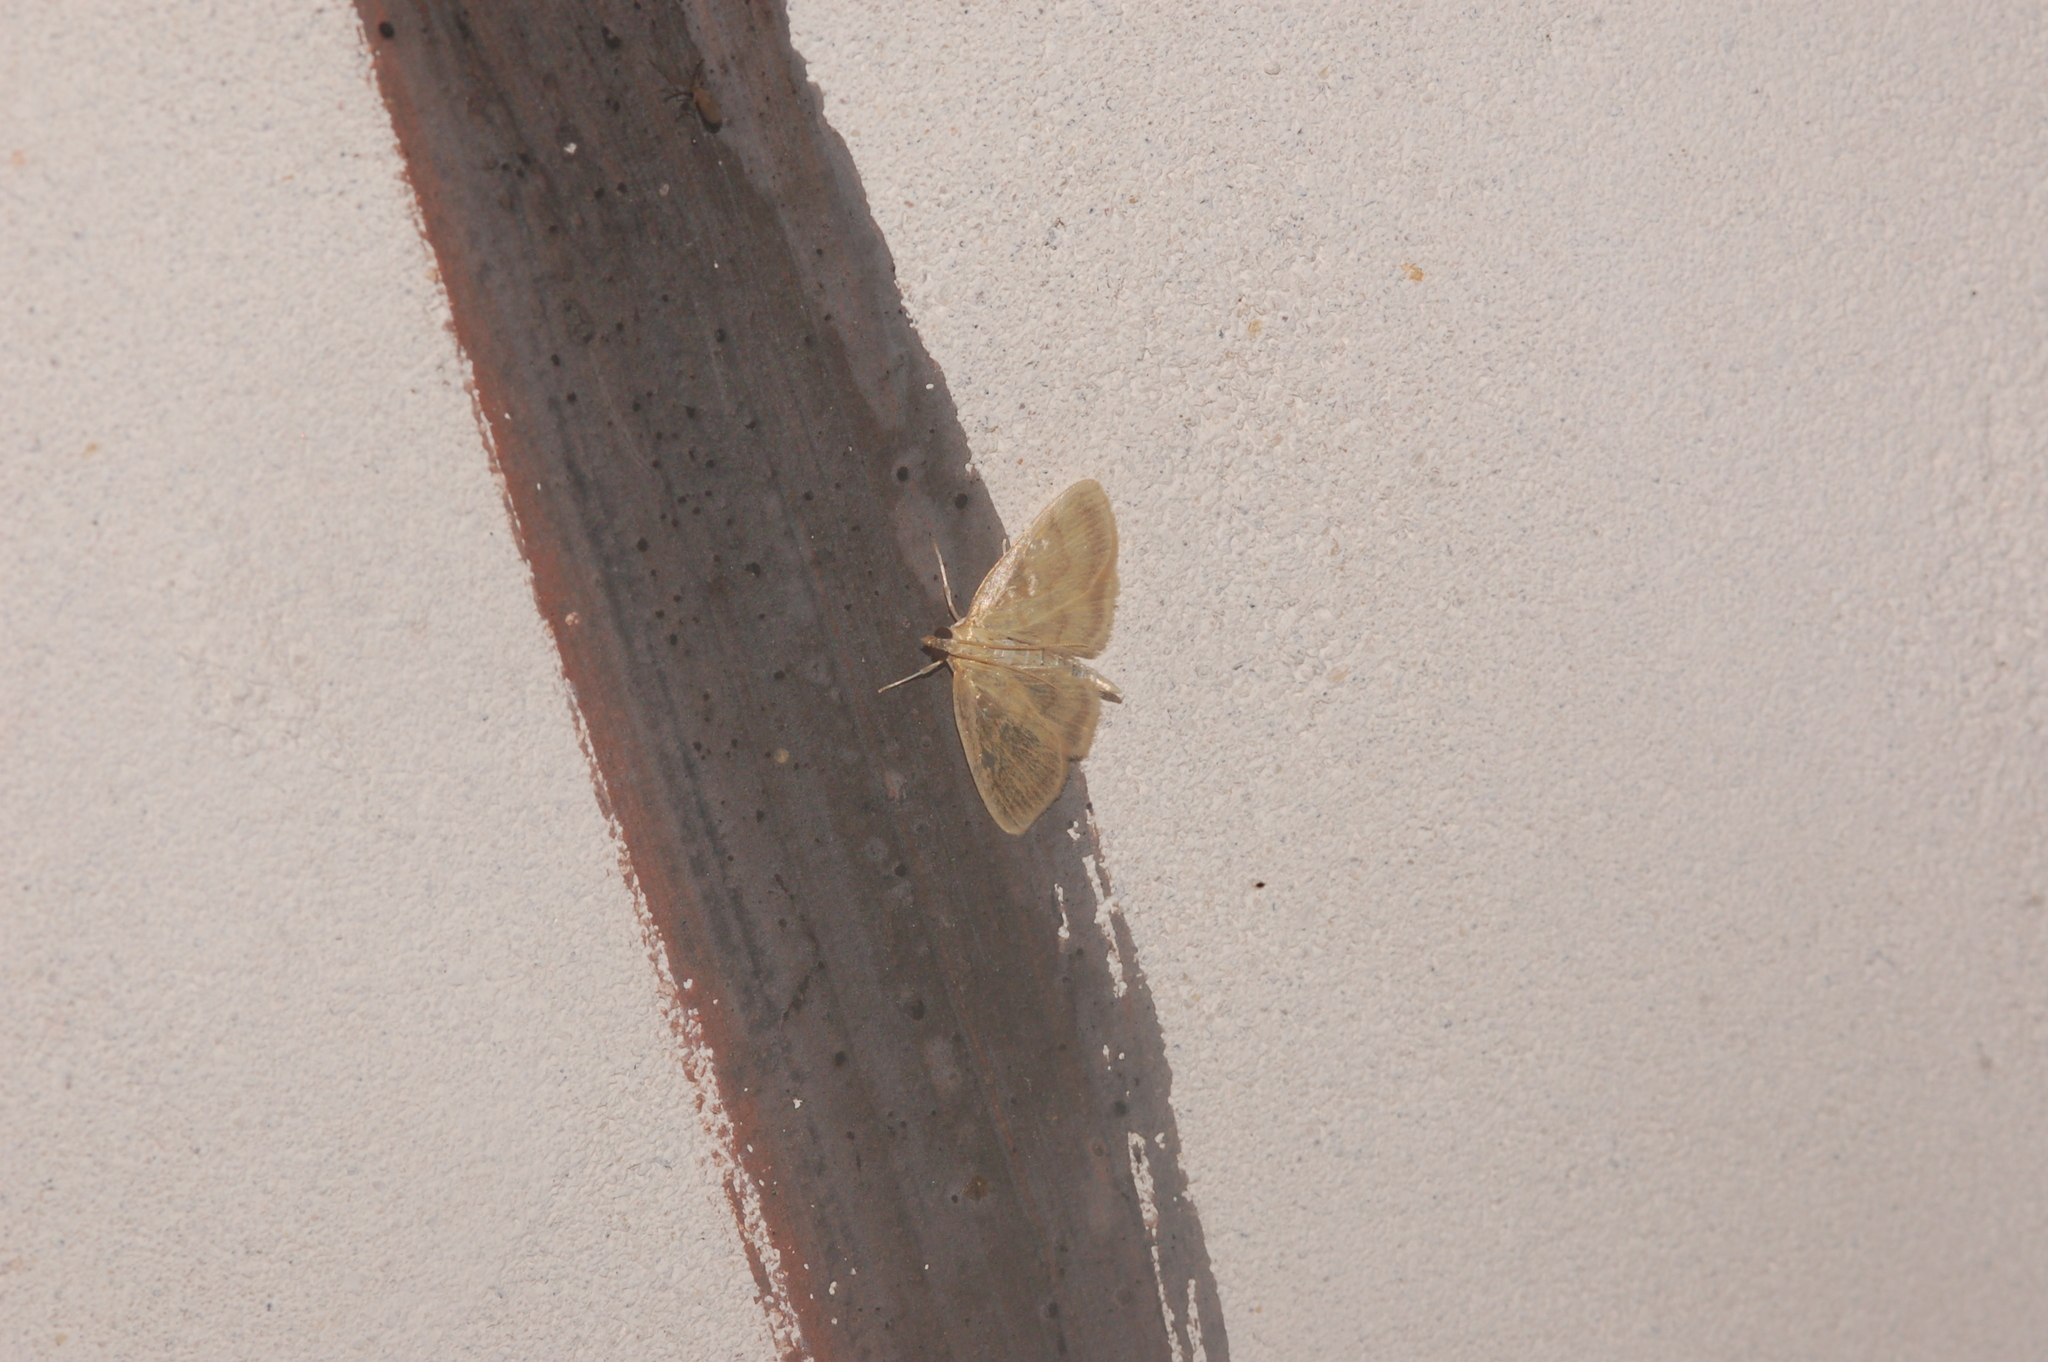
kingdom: Animalia
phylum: Arthropoda
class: Insecta
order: Lepidoptera
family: Crambidae
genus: Crocidophora
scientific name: Crocidophora tuberculalis
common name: Pale-winged crocidiphora moth
